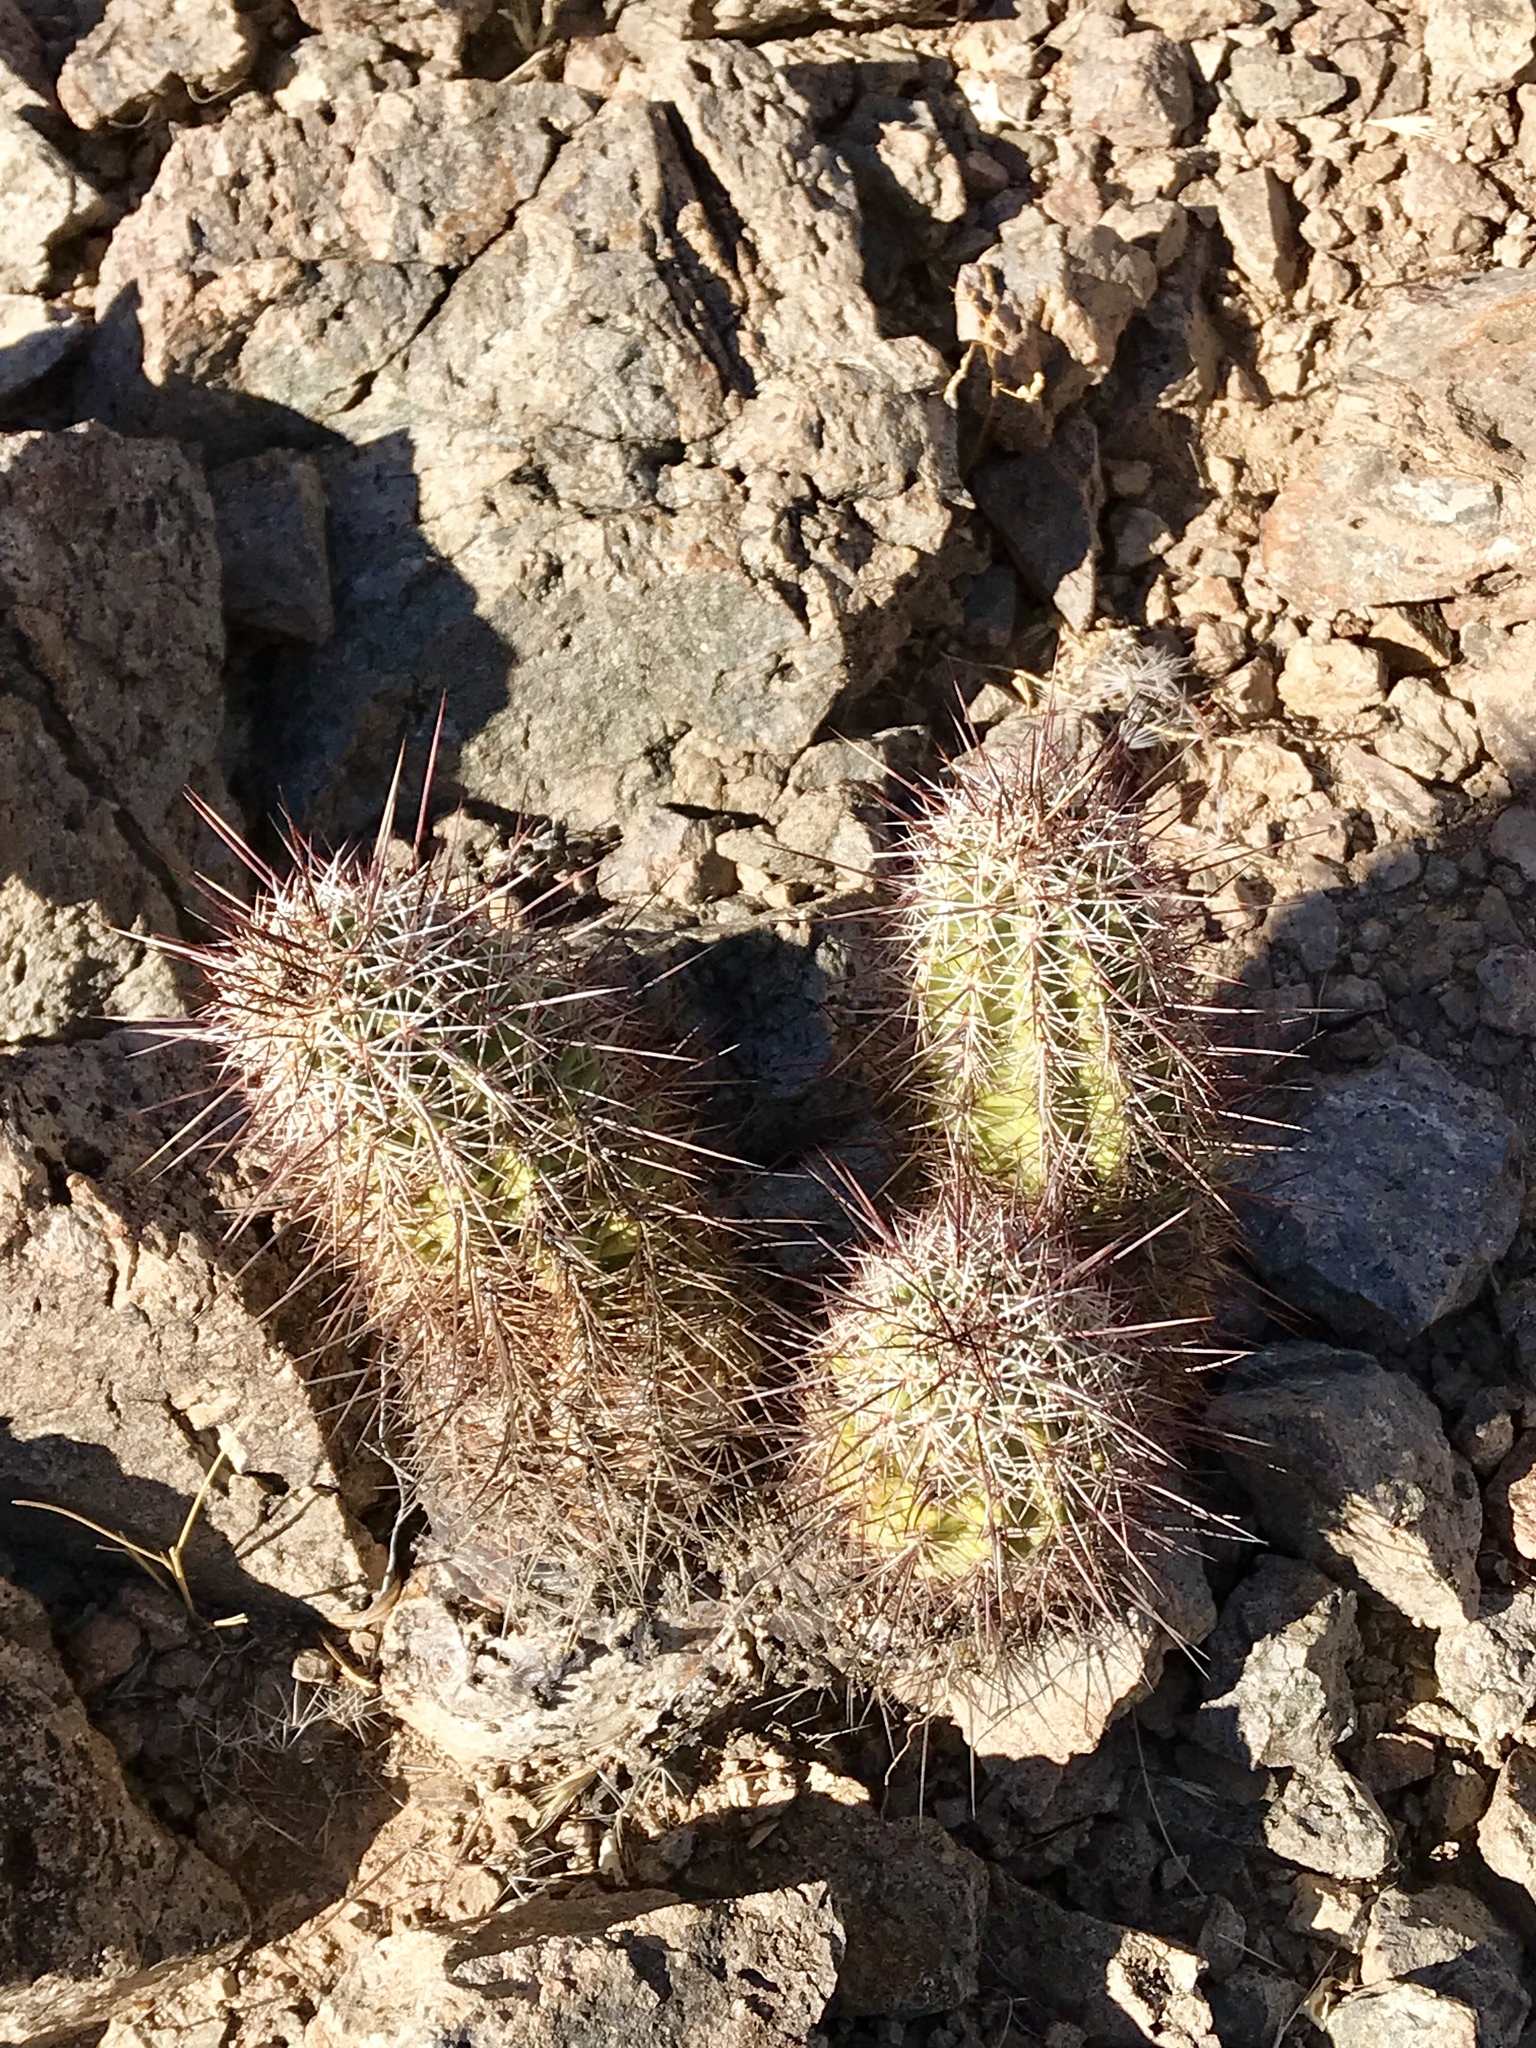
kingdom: Plantae
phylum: Tracheophyta
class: Magnoliopsida
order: Caryophyllales
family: Cactaceae
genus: Echinocereus
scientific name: Echinocereus fasciculatus
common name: Bundle hedgehog
